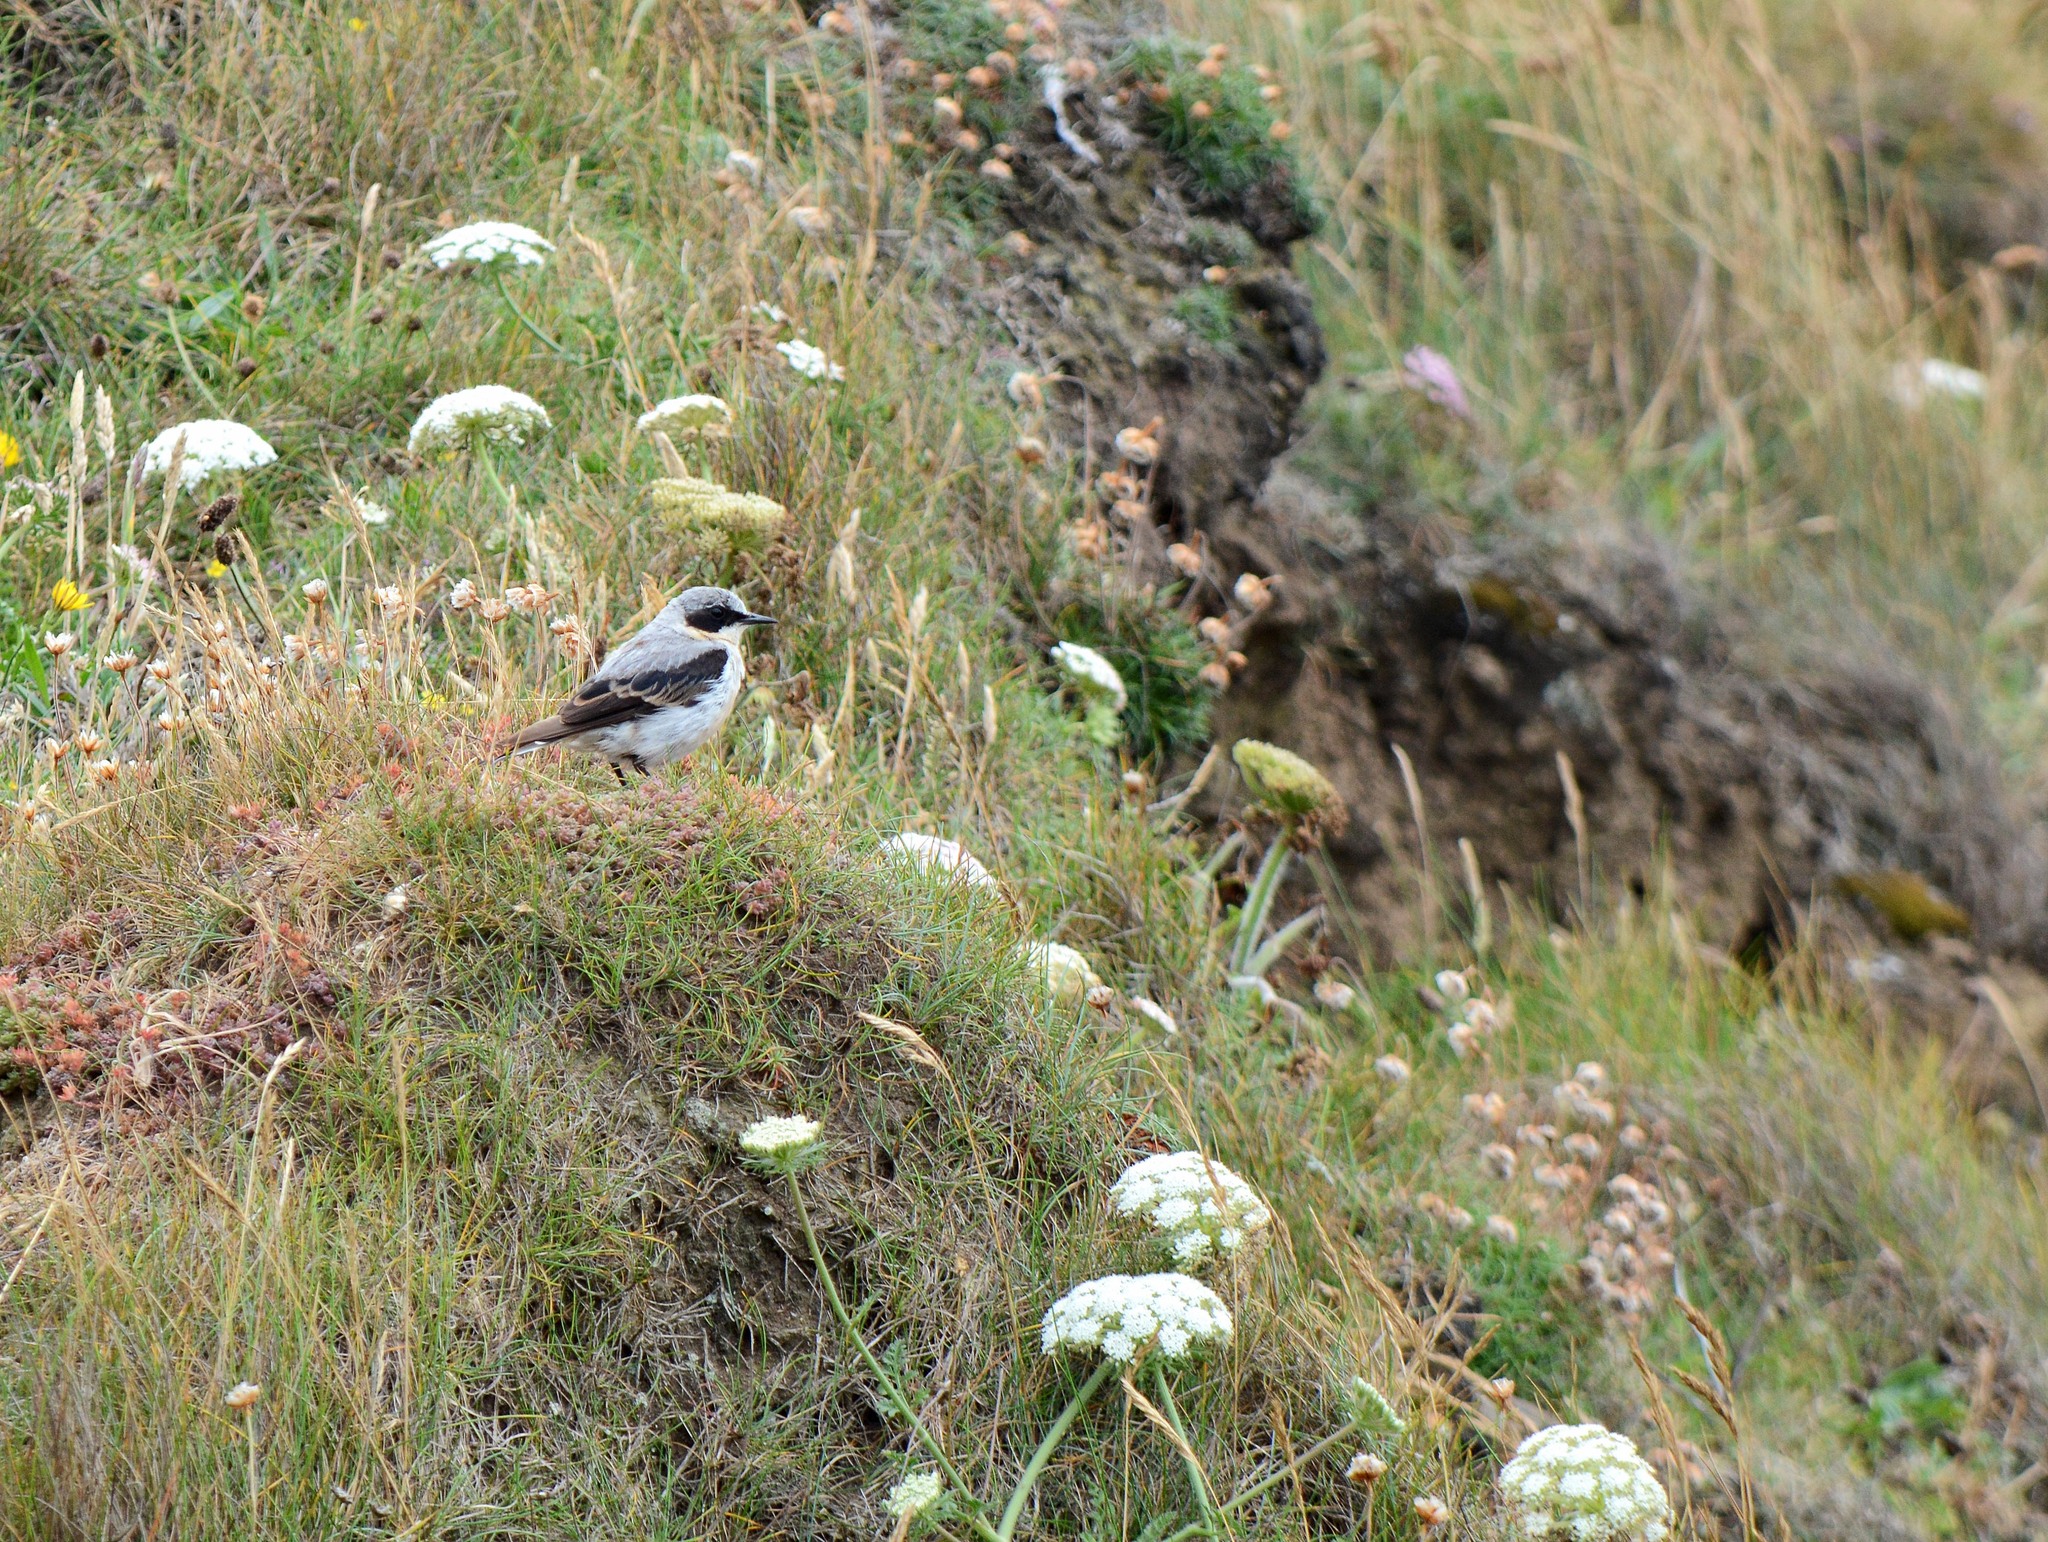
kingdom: Animalia
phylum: Chordata
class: Aves
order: Passeriformes
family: Muscicapidae
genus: Oenanthe
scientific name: Oenanthe oenanthe
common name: Northern wheatear
